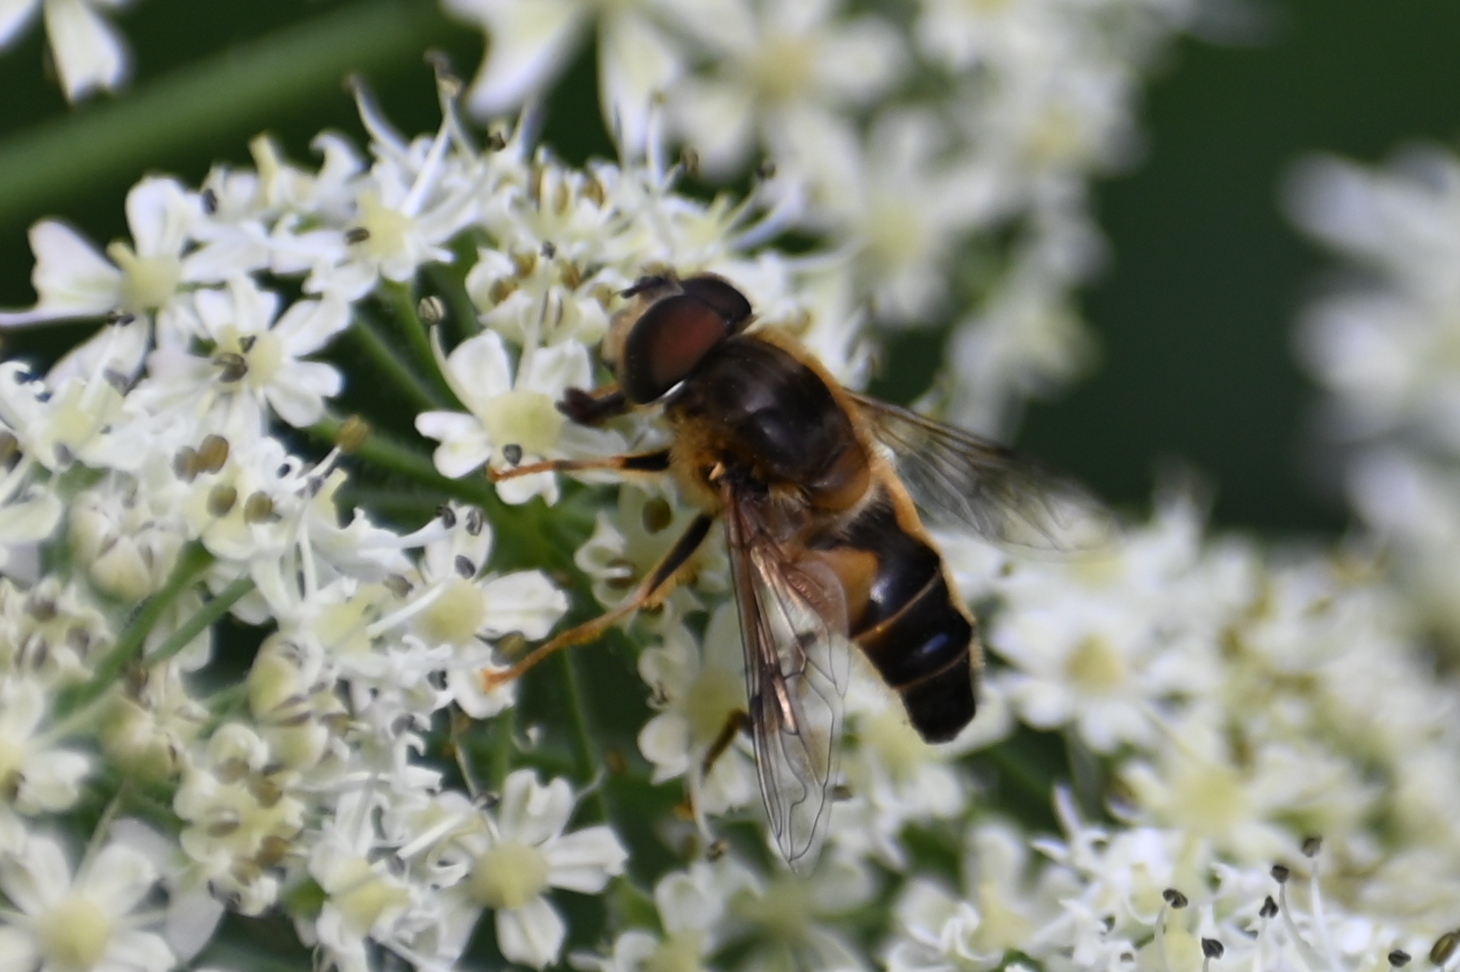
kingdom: Animalia
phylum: Arthropoda
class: Insecta
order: Diptera
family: Syrphidae
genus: Eristalis
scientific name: Eristalis pertinax
